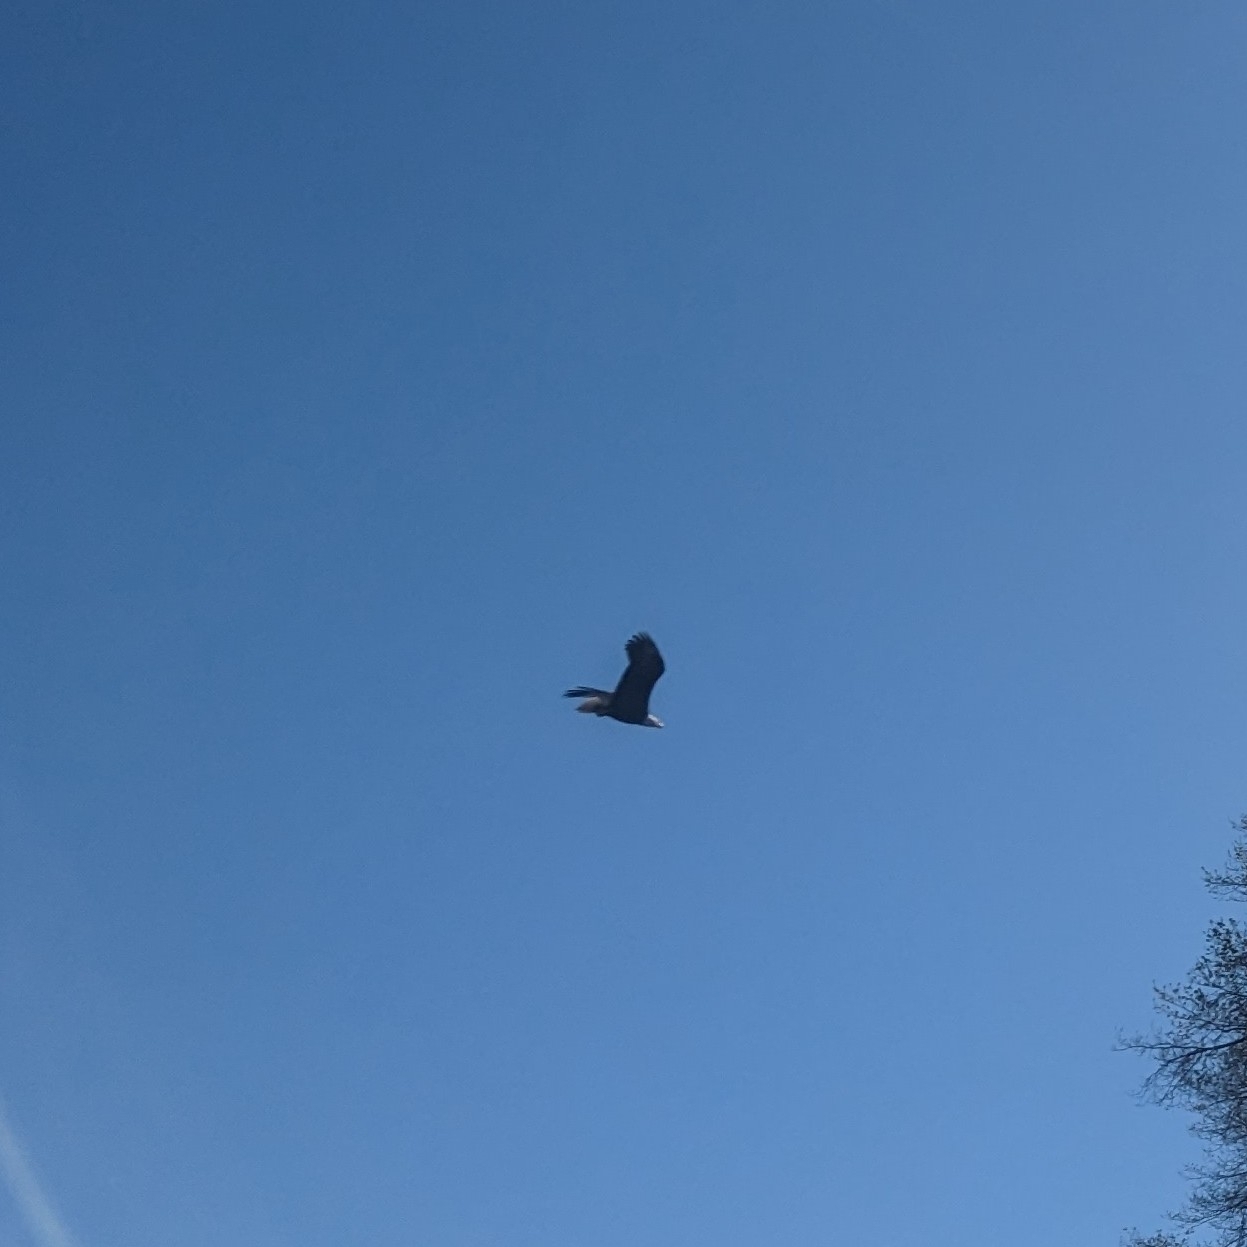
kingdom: Animalia
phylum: Chordata
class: Aves
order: Accipitriformes
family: Accipitridae
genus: Haliaeetus
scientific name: Haliaeetus leucocephalus
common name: Bald eagle
